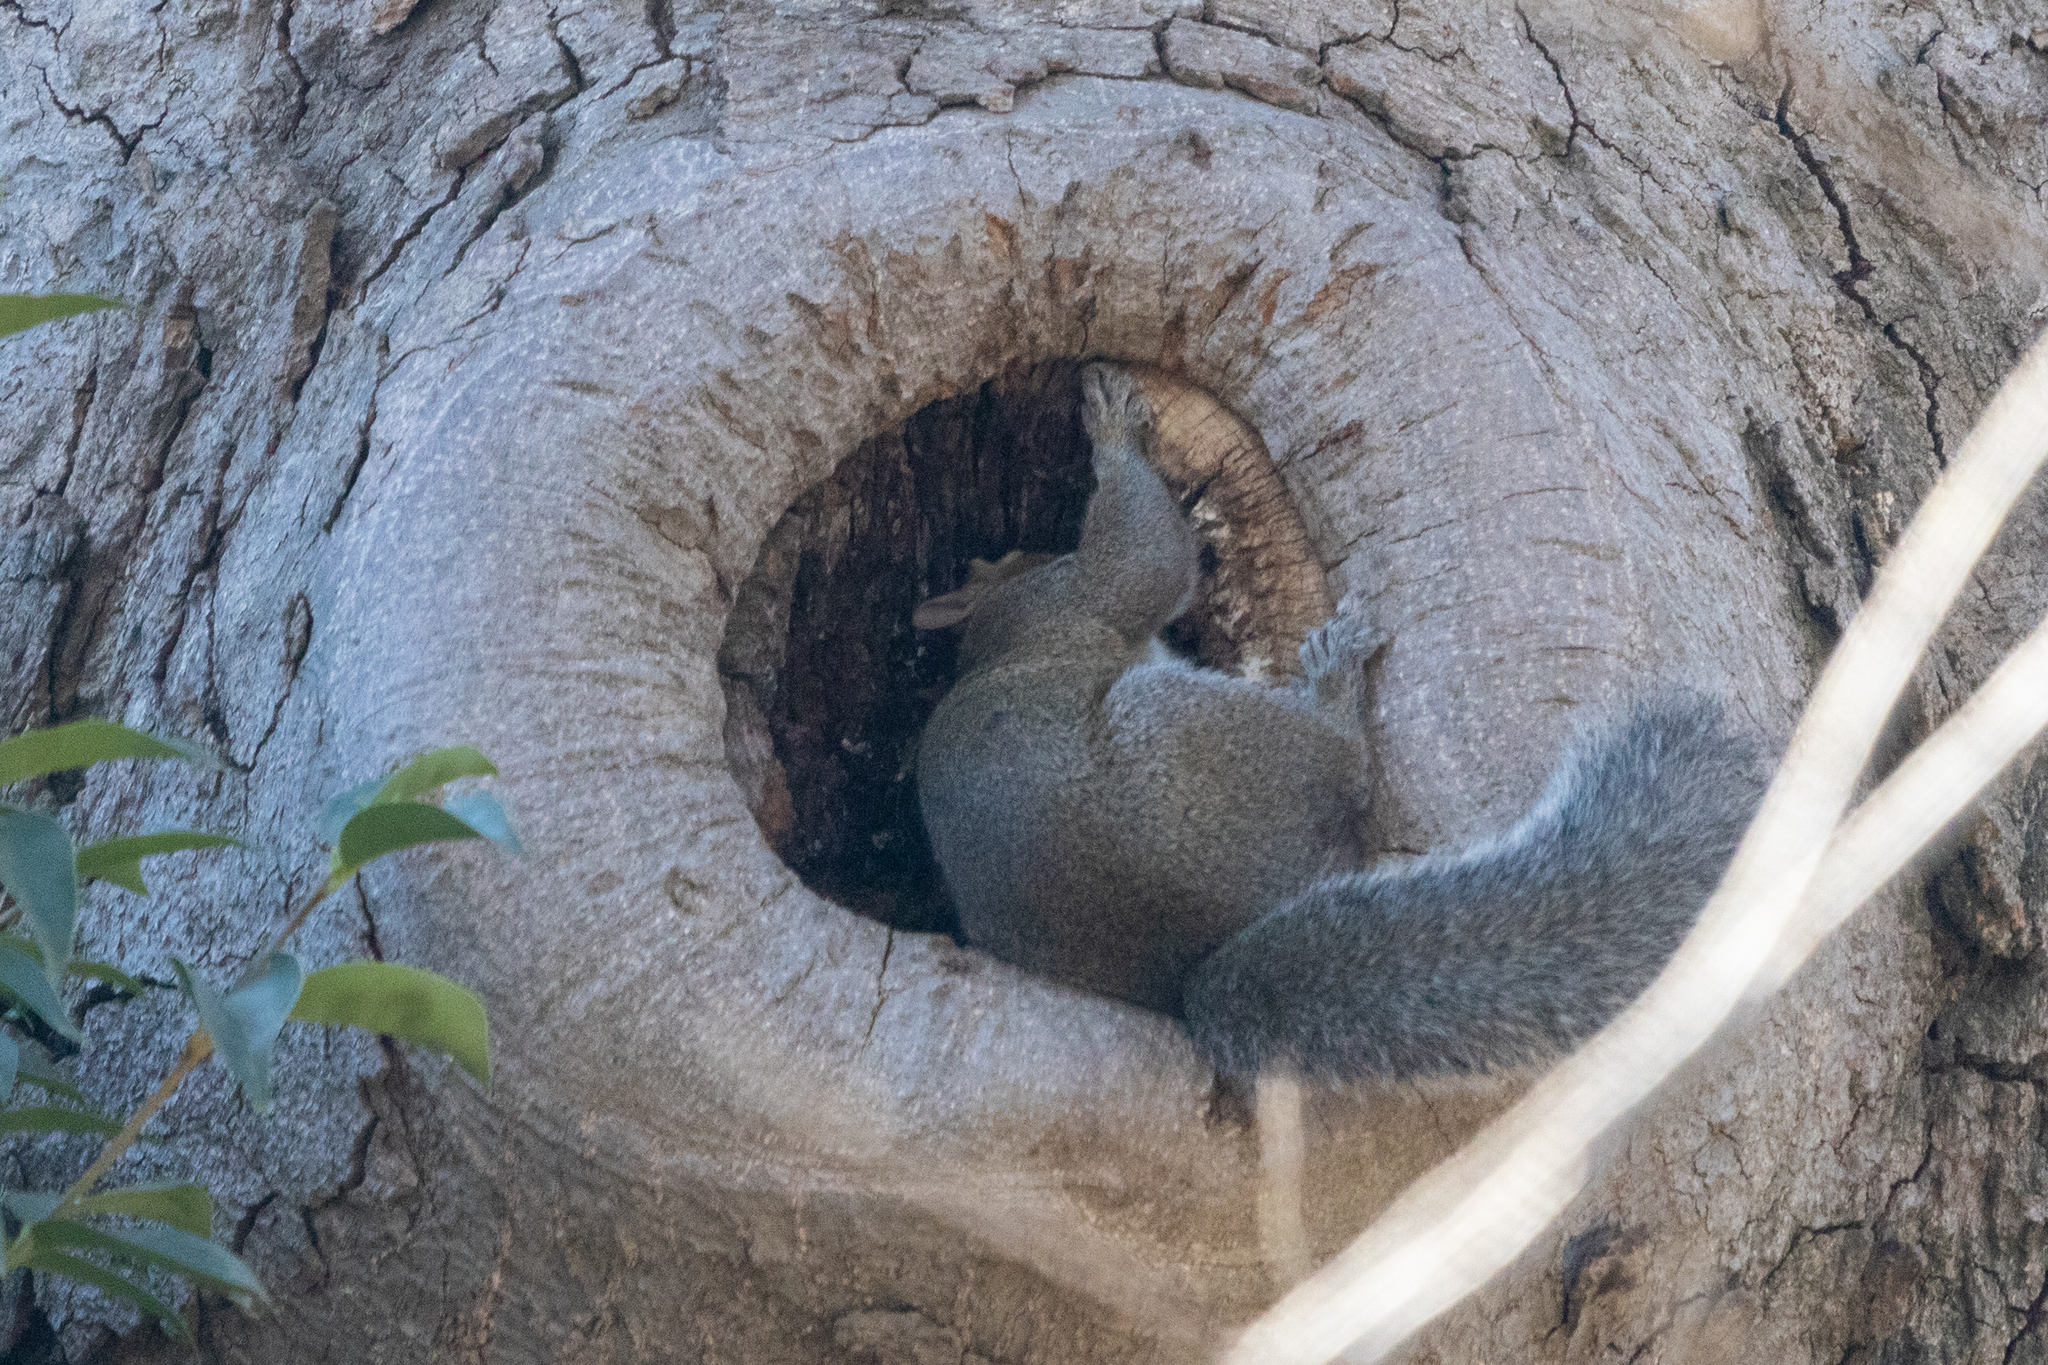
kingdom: Animalia
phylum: Chordata
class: Mammalia
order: Rodentia
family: Sciuridae
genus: Sciurus
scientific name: Sciurus griseus
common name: Western gray squirrel
